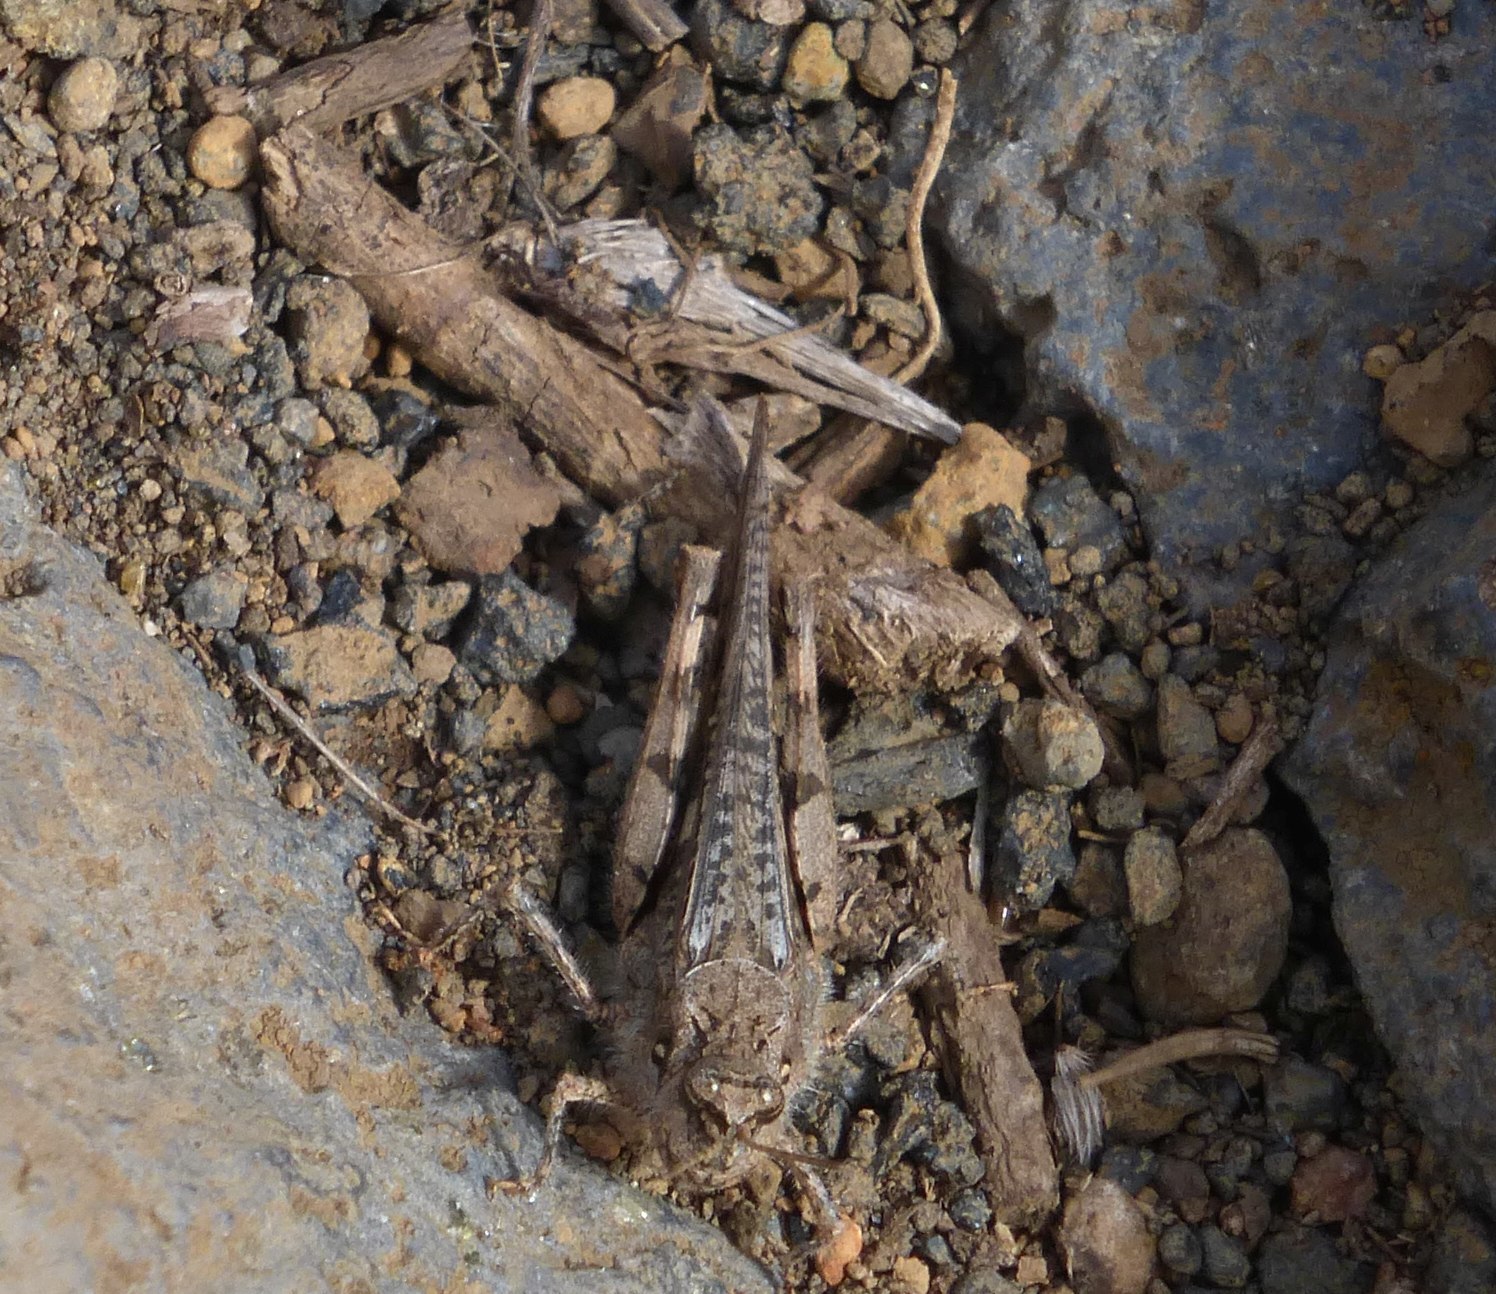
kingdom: Animalia
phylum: Arthropoda
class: Insecta
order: Orthoptera
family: Acrididae
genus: Acrotylus
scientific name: Acrotylus insubricus
